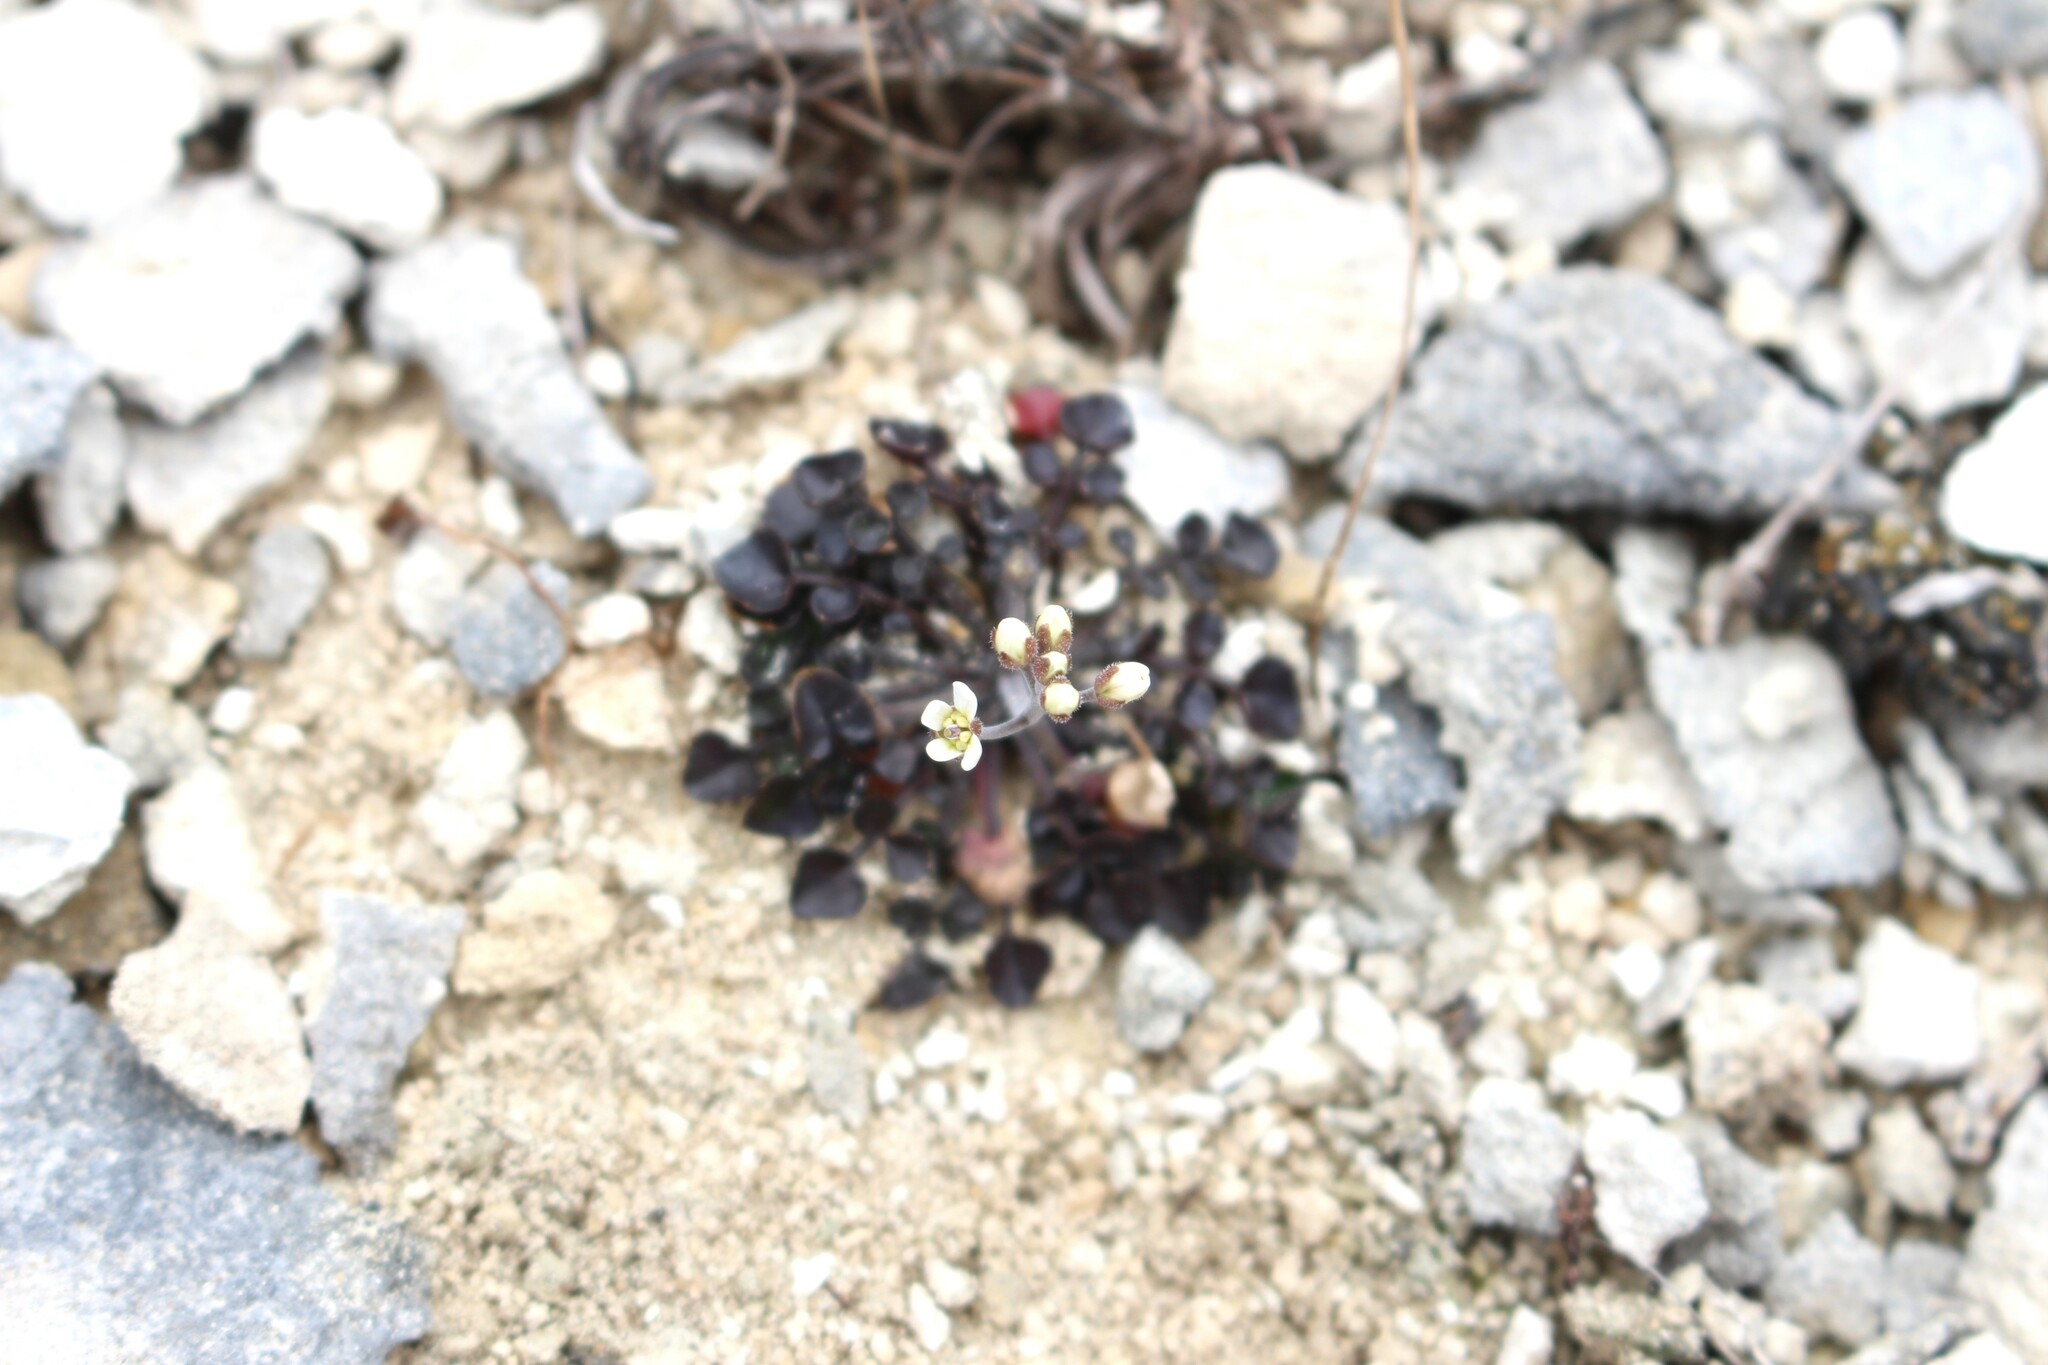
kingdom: Plantae
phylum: Tracheophyta
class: Magnoliopsida
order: Brassicales
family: Brassicaceae
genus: Cardamine
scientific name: Cardamine intonsa
